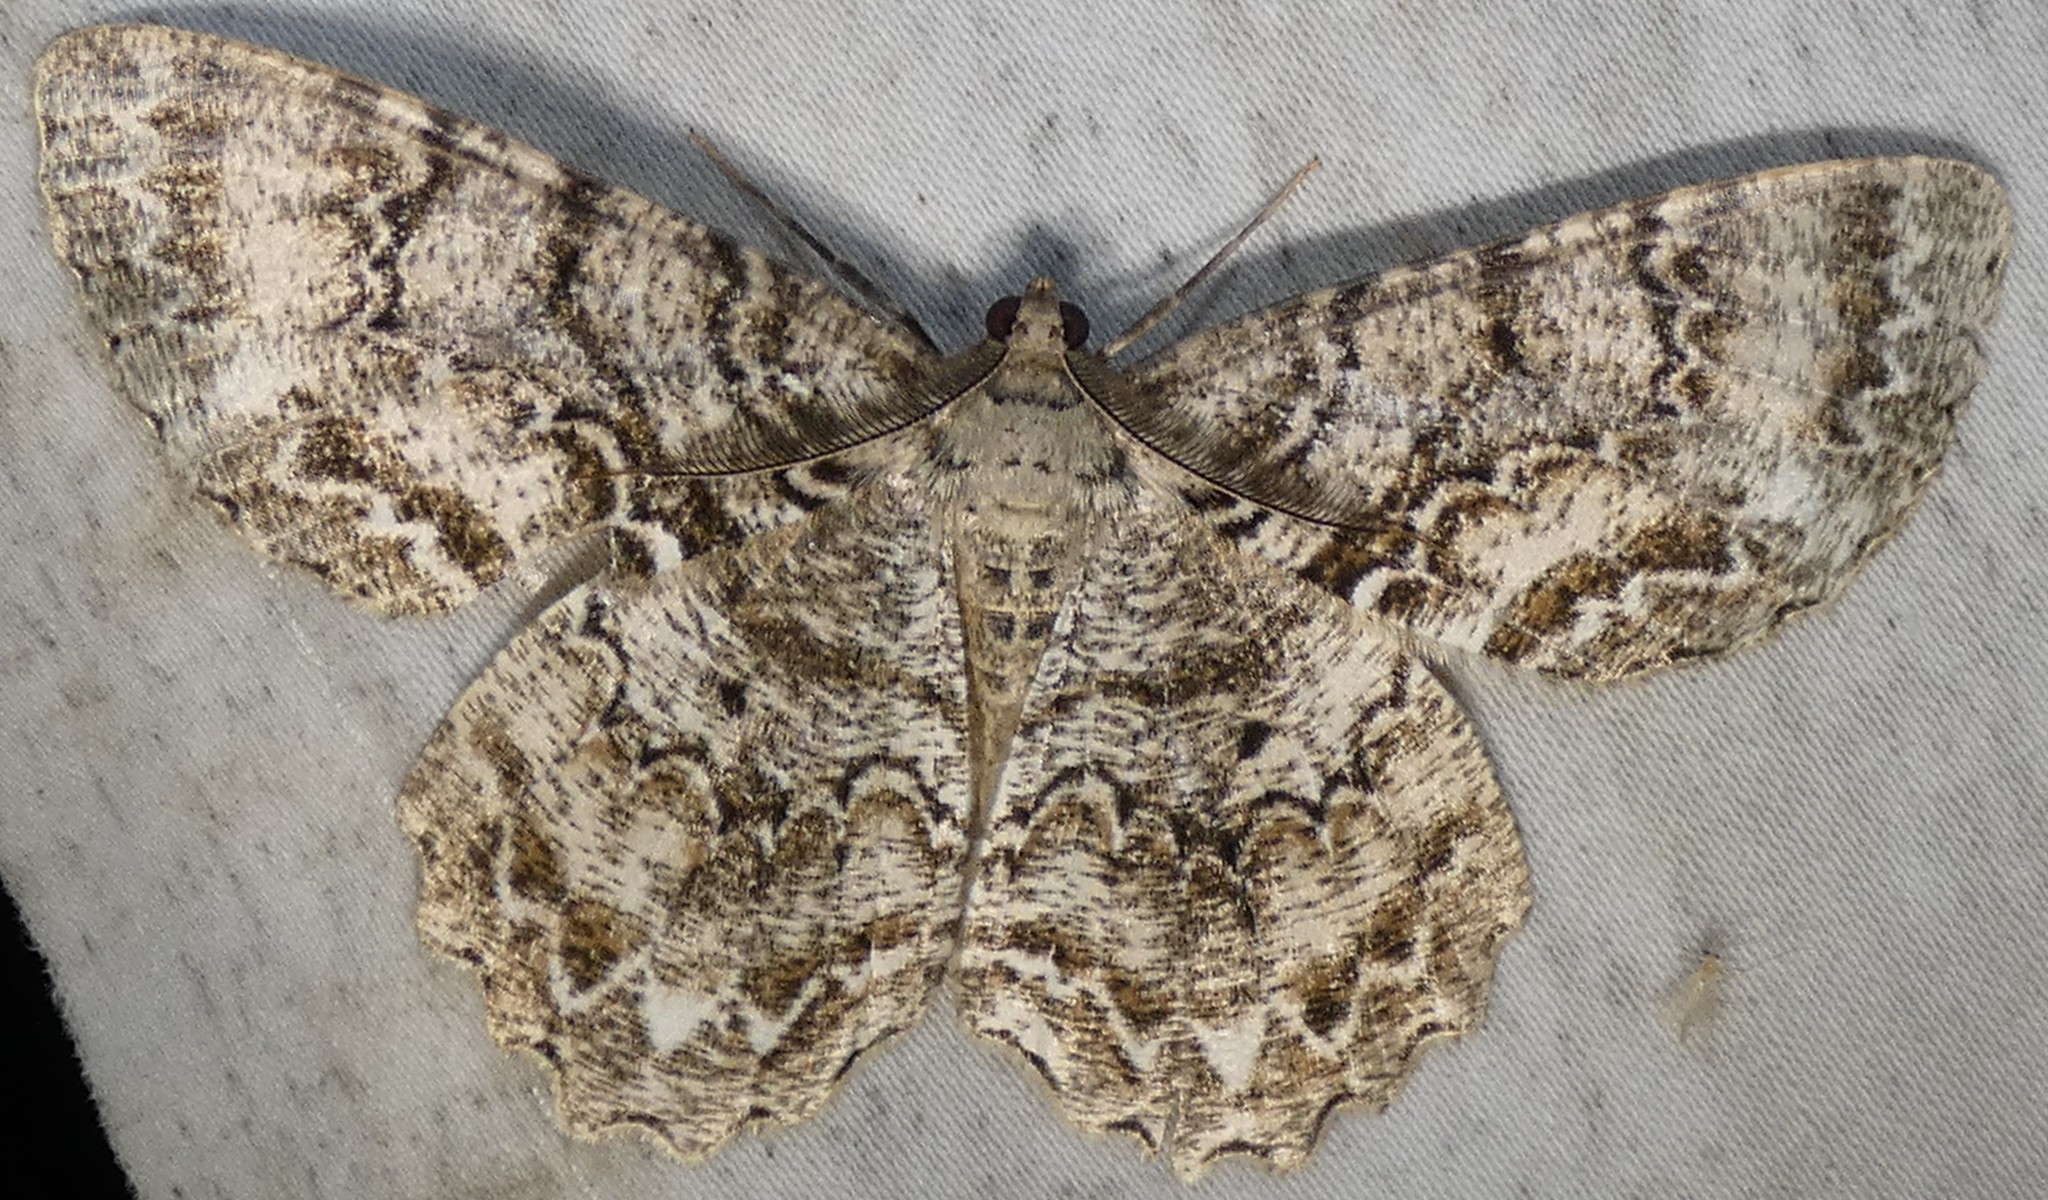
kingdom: Animalia
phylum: Arthropoda
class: Insecta
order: Lepidoptera
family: Geometridae
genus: Epimecis
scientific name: Epimecis hortaria
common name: Tulip-tree beauty
